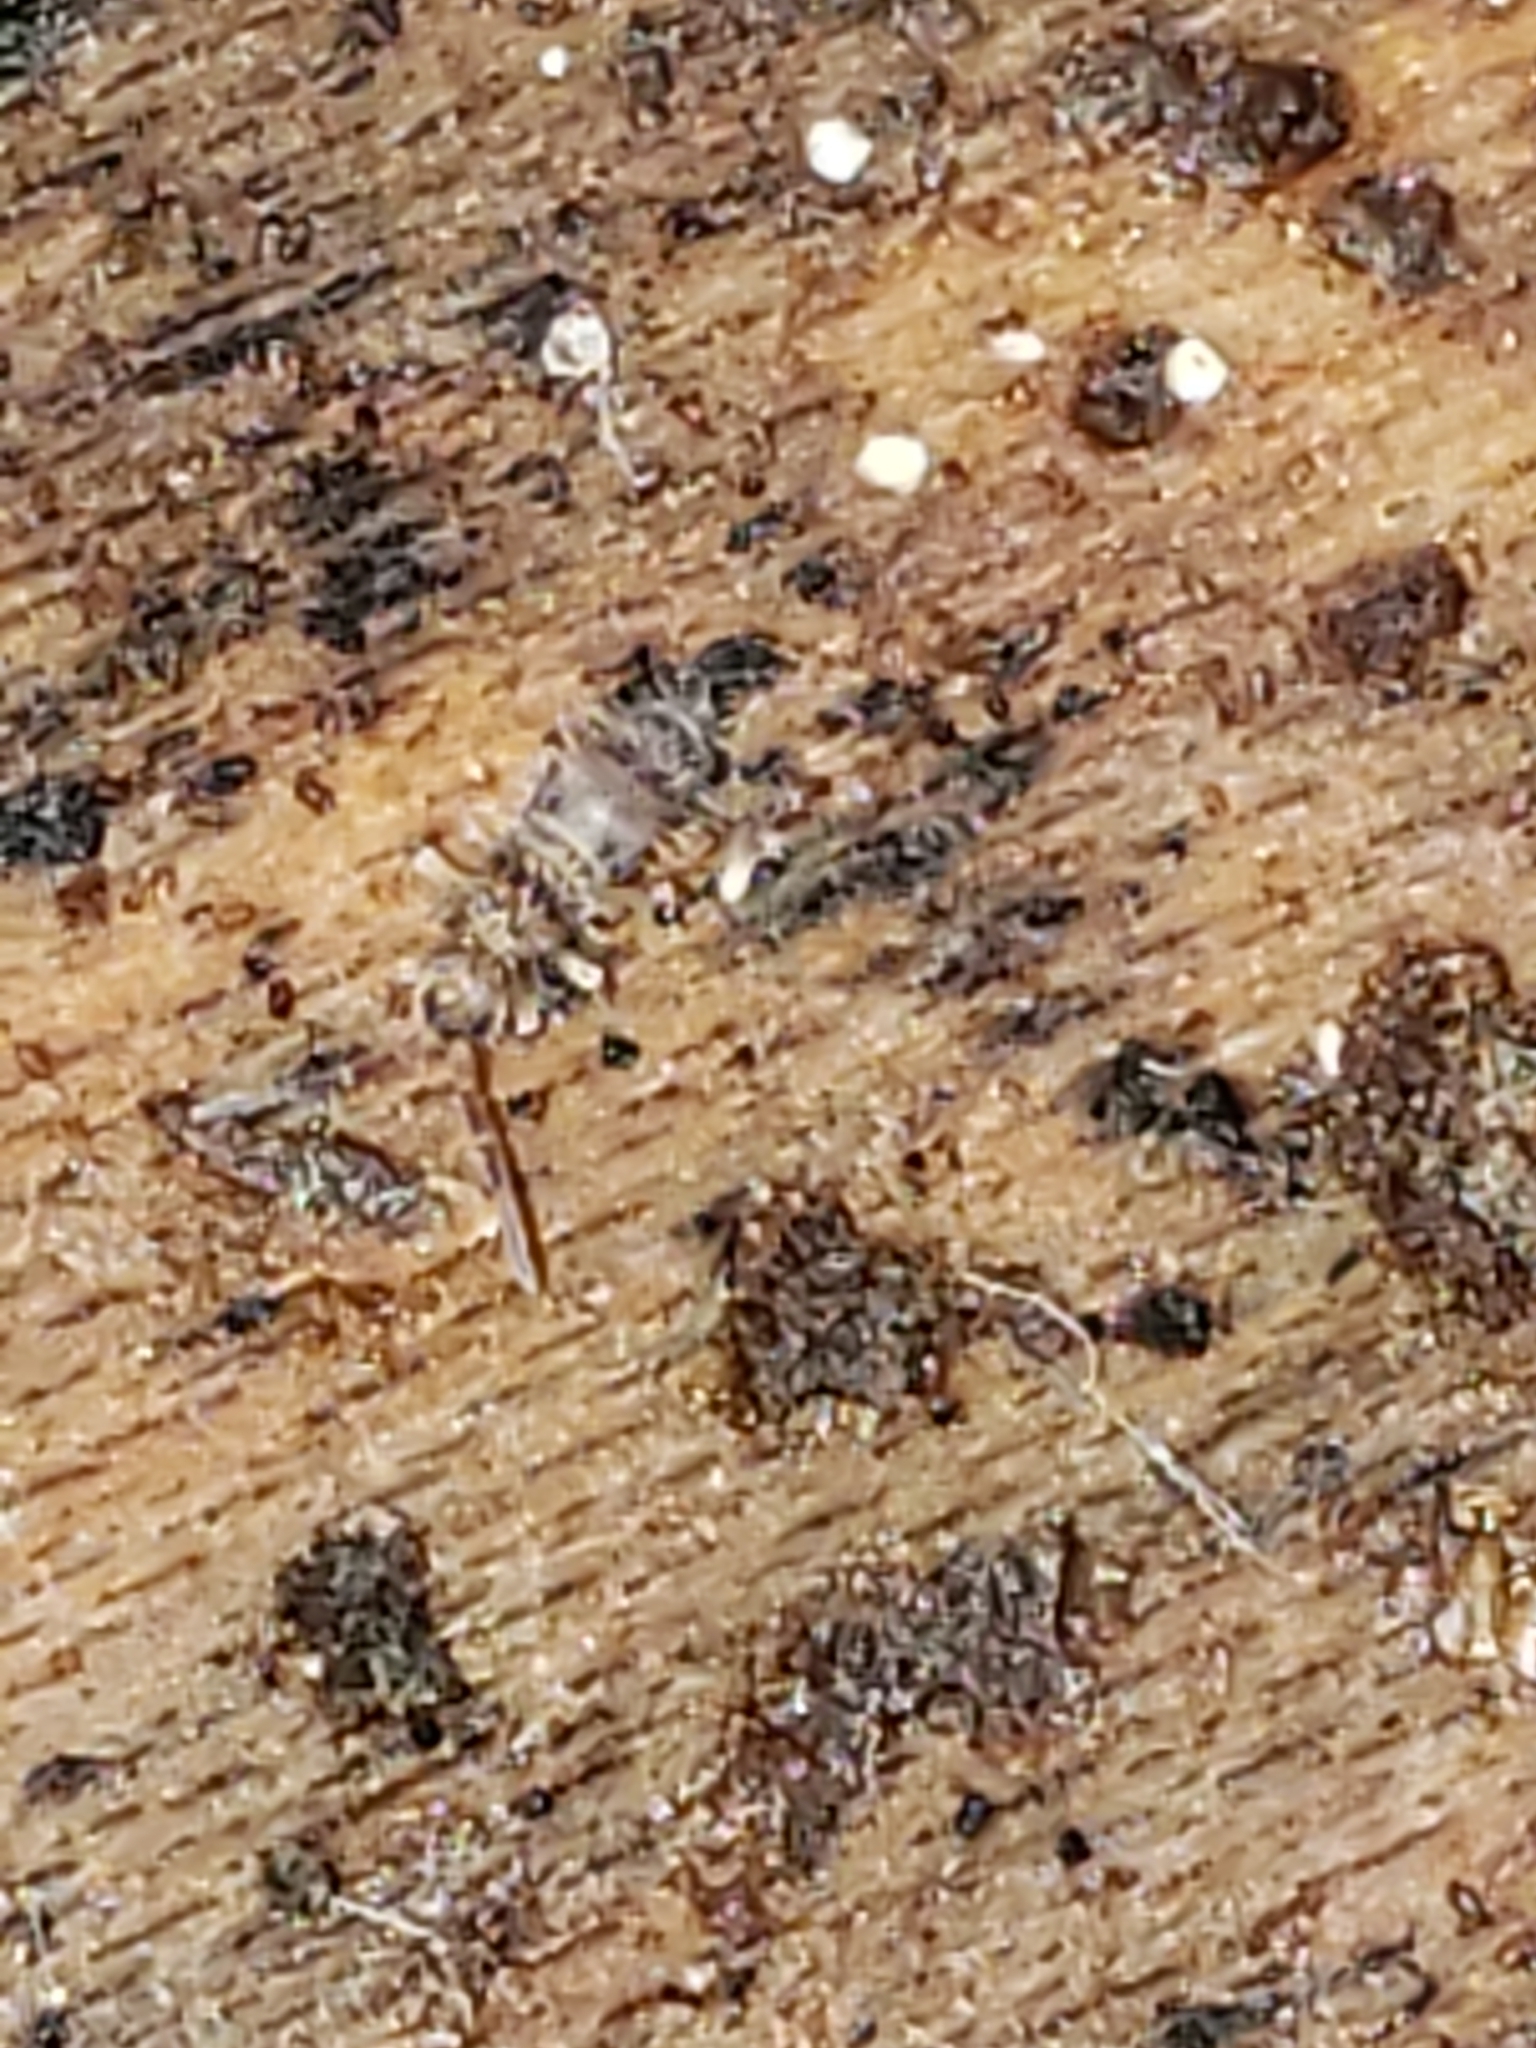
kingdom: Animalia
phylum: Arthropoda
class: Collembola
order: Entomobryomorpha
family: Entomobryidae
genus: Homidia
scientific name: Homidia sauteri
